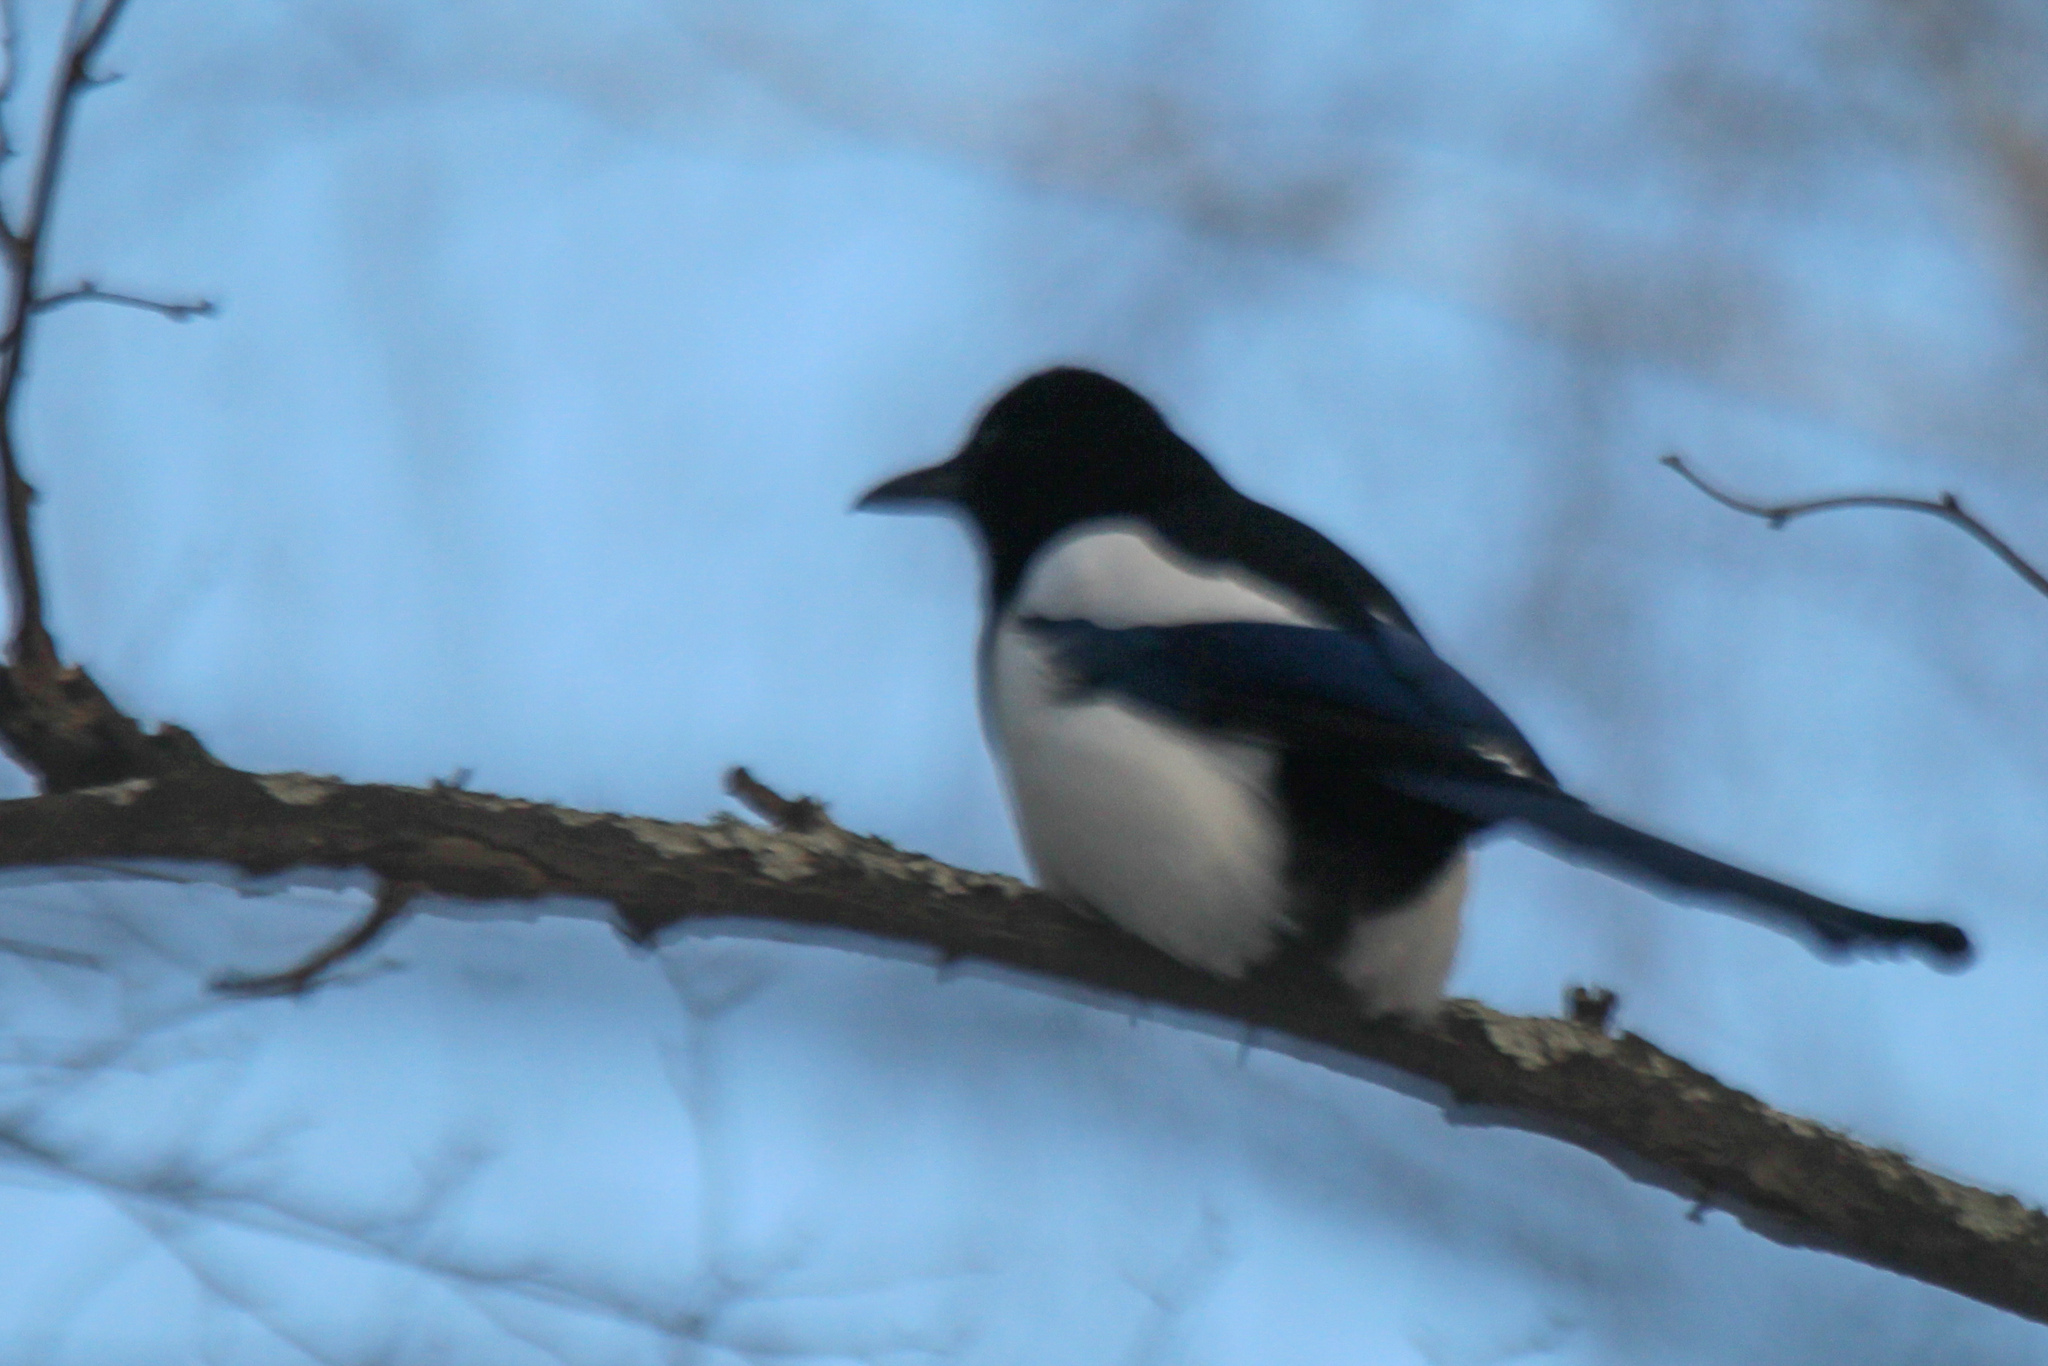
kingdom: Animalia
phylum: Chordata
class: Aves
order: Passeriformes
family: Corvidae
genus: Pica
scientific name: Pica pica
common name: Eurasian magpie
